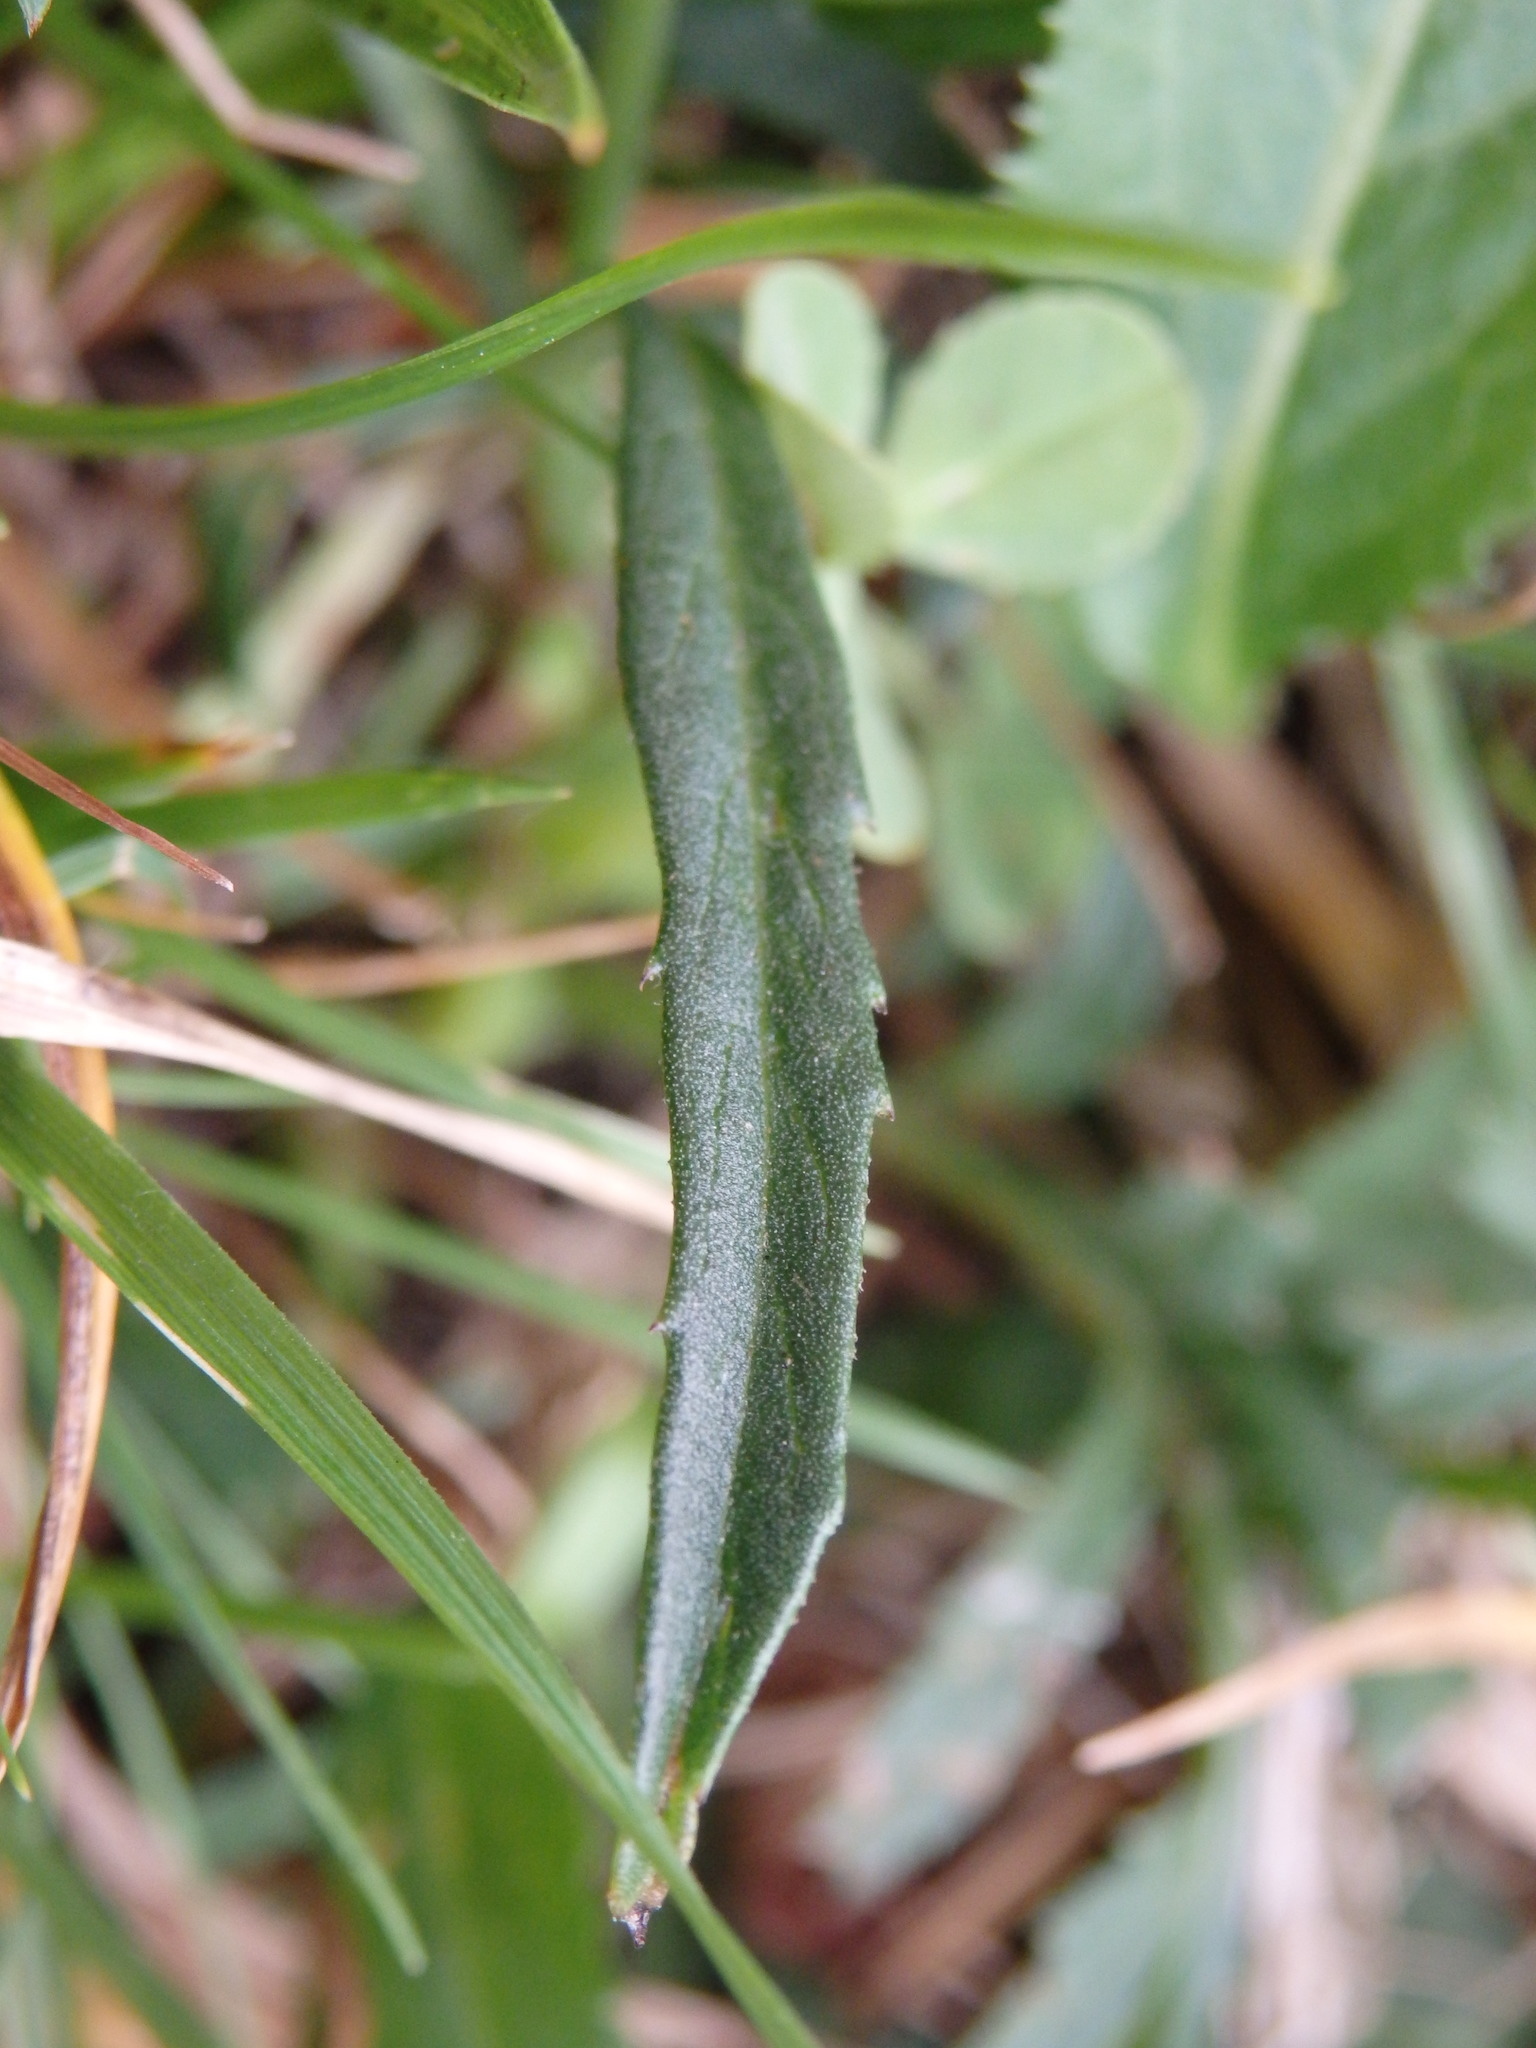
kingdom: Plantae
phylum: Tracheophyta
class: Magnoliopsida
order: Asterales
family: Asteraceae
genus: Serratula
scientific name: Serratula tinctoria
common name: Saw-wort
